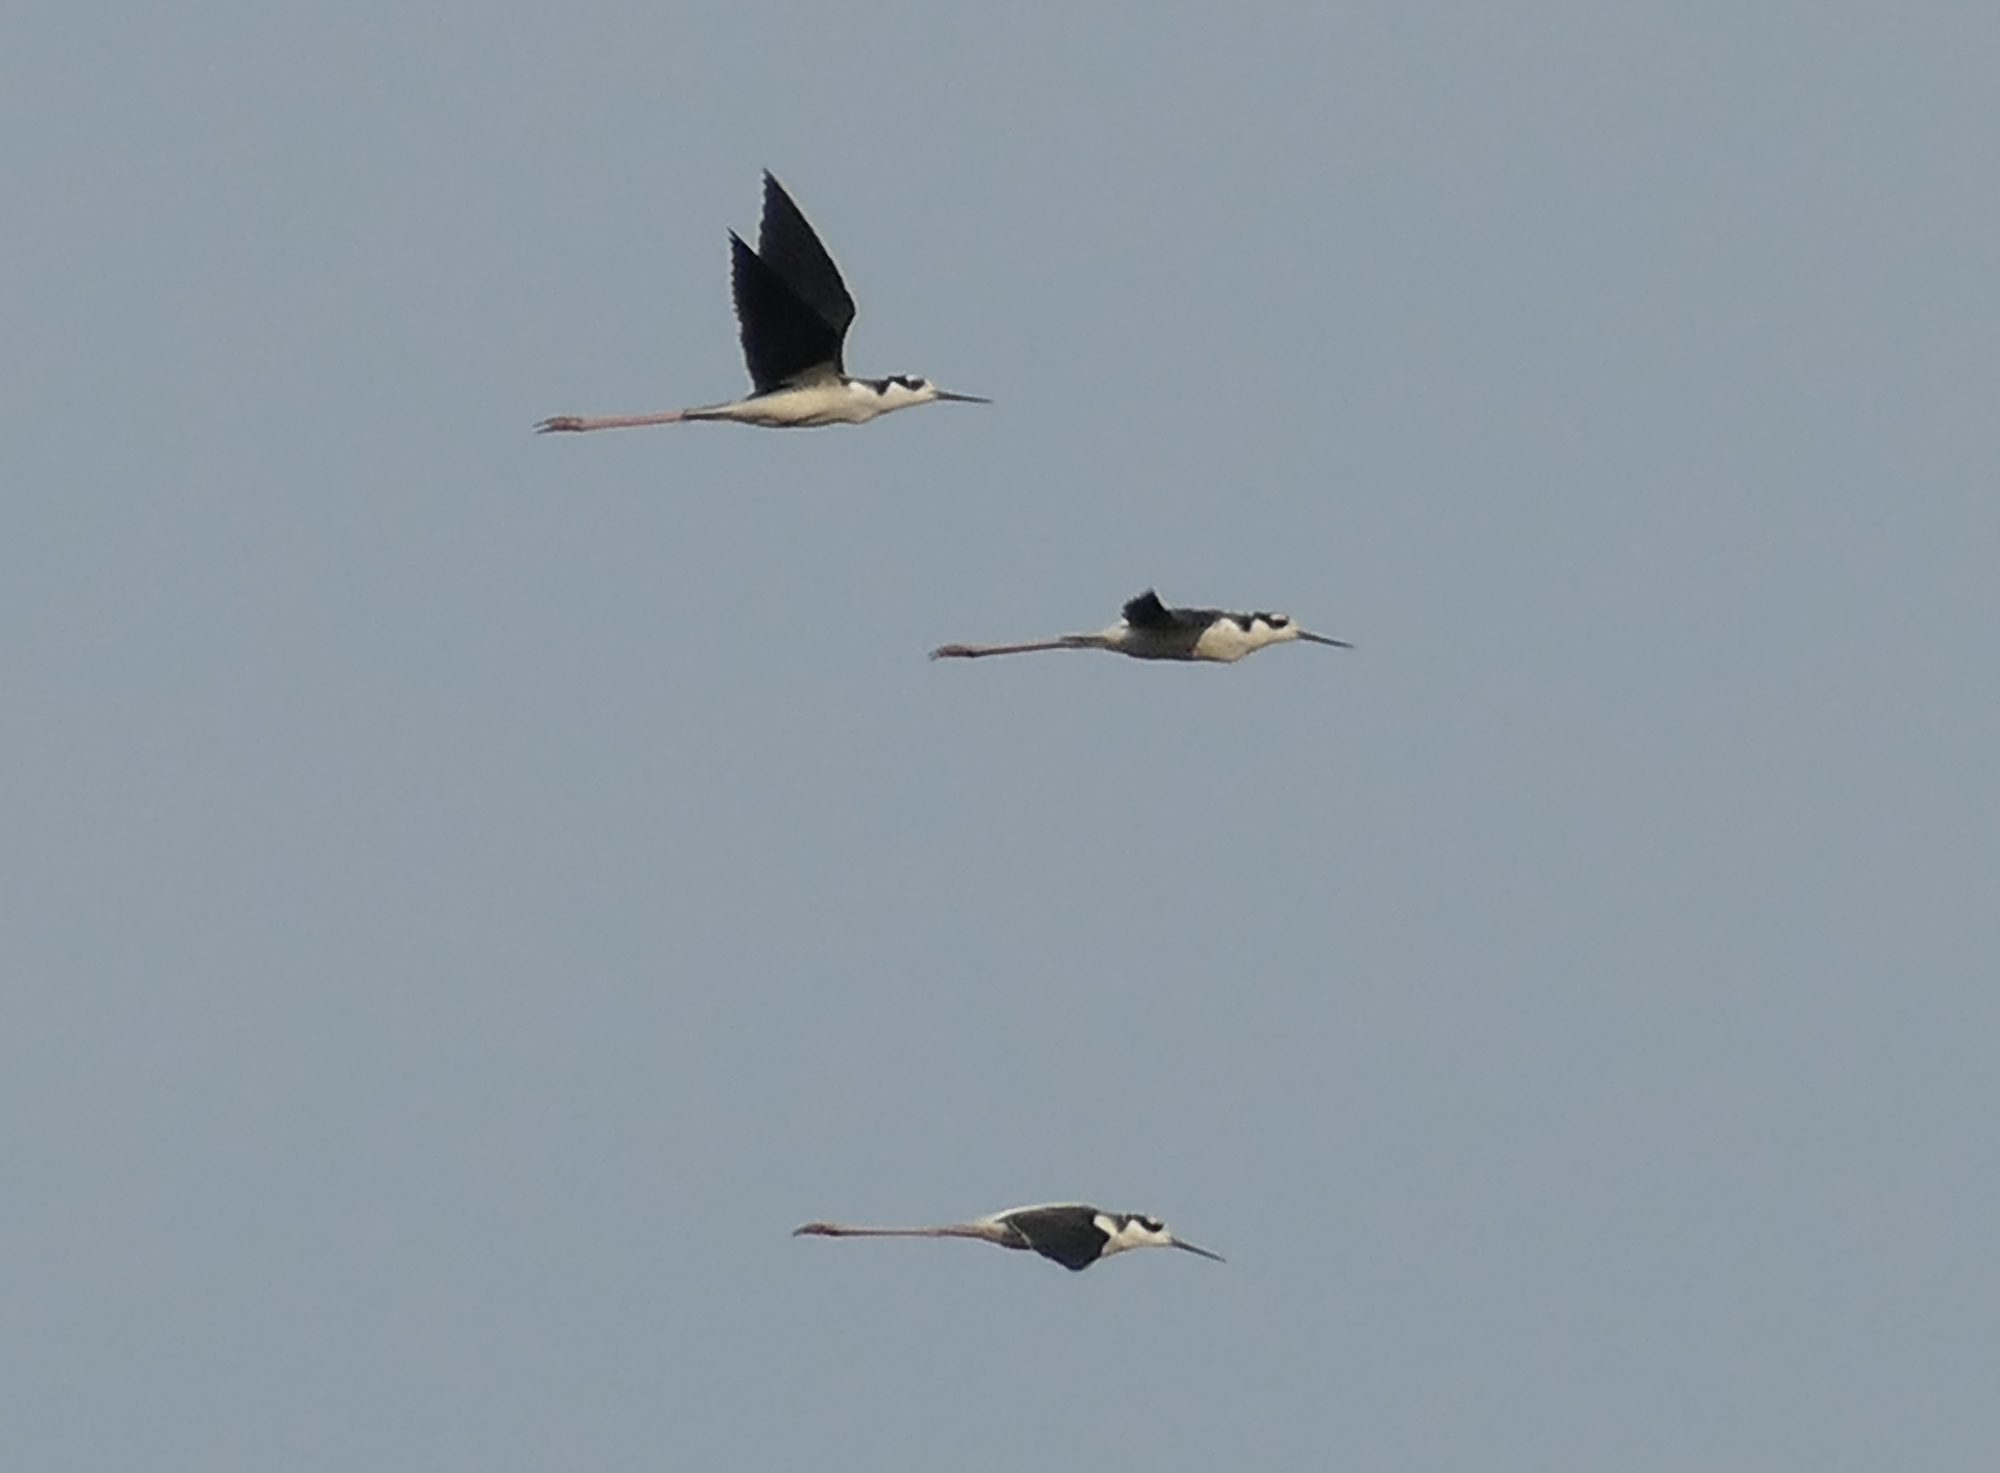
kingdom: Animalia
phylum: Chordata
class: Aves
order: Charadriiformes
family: Recurvirostridae
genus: Himantopus
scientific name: Himantopus mexicanus
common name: Black-necked stilt
